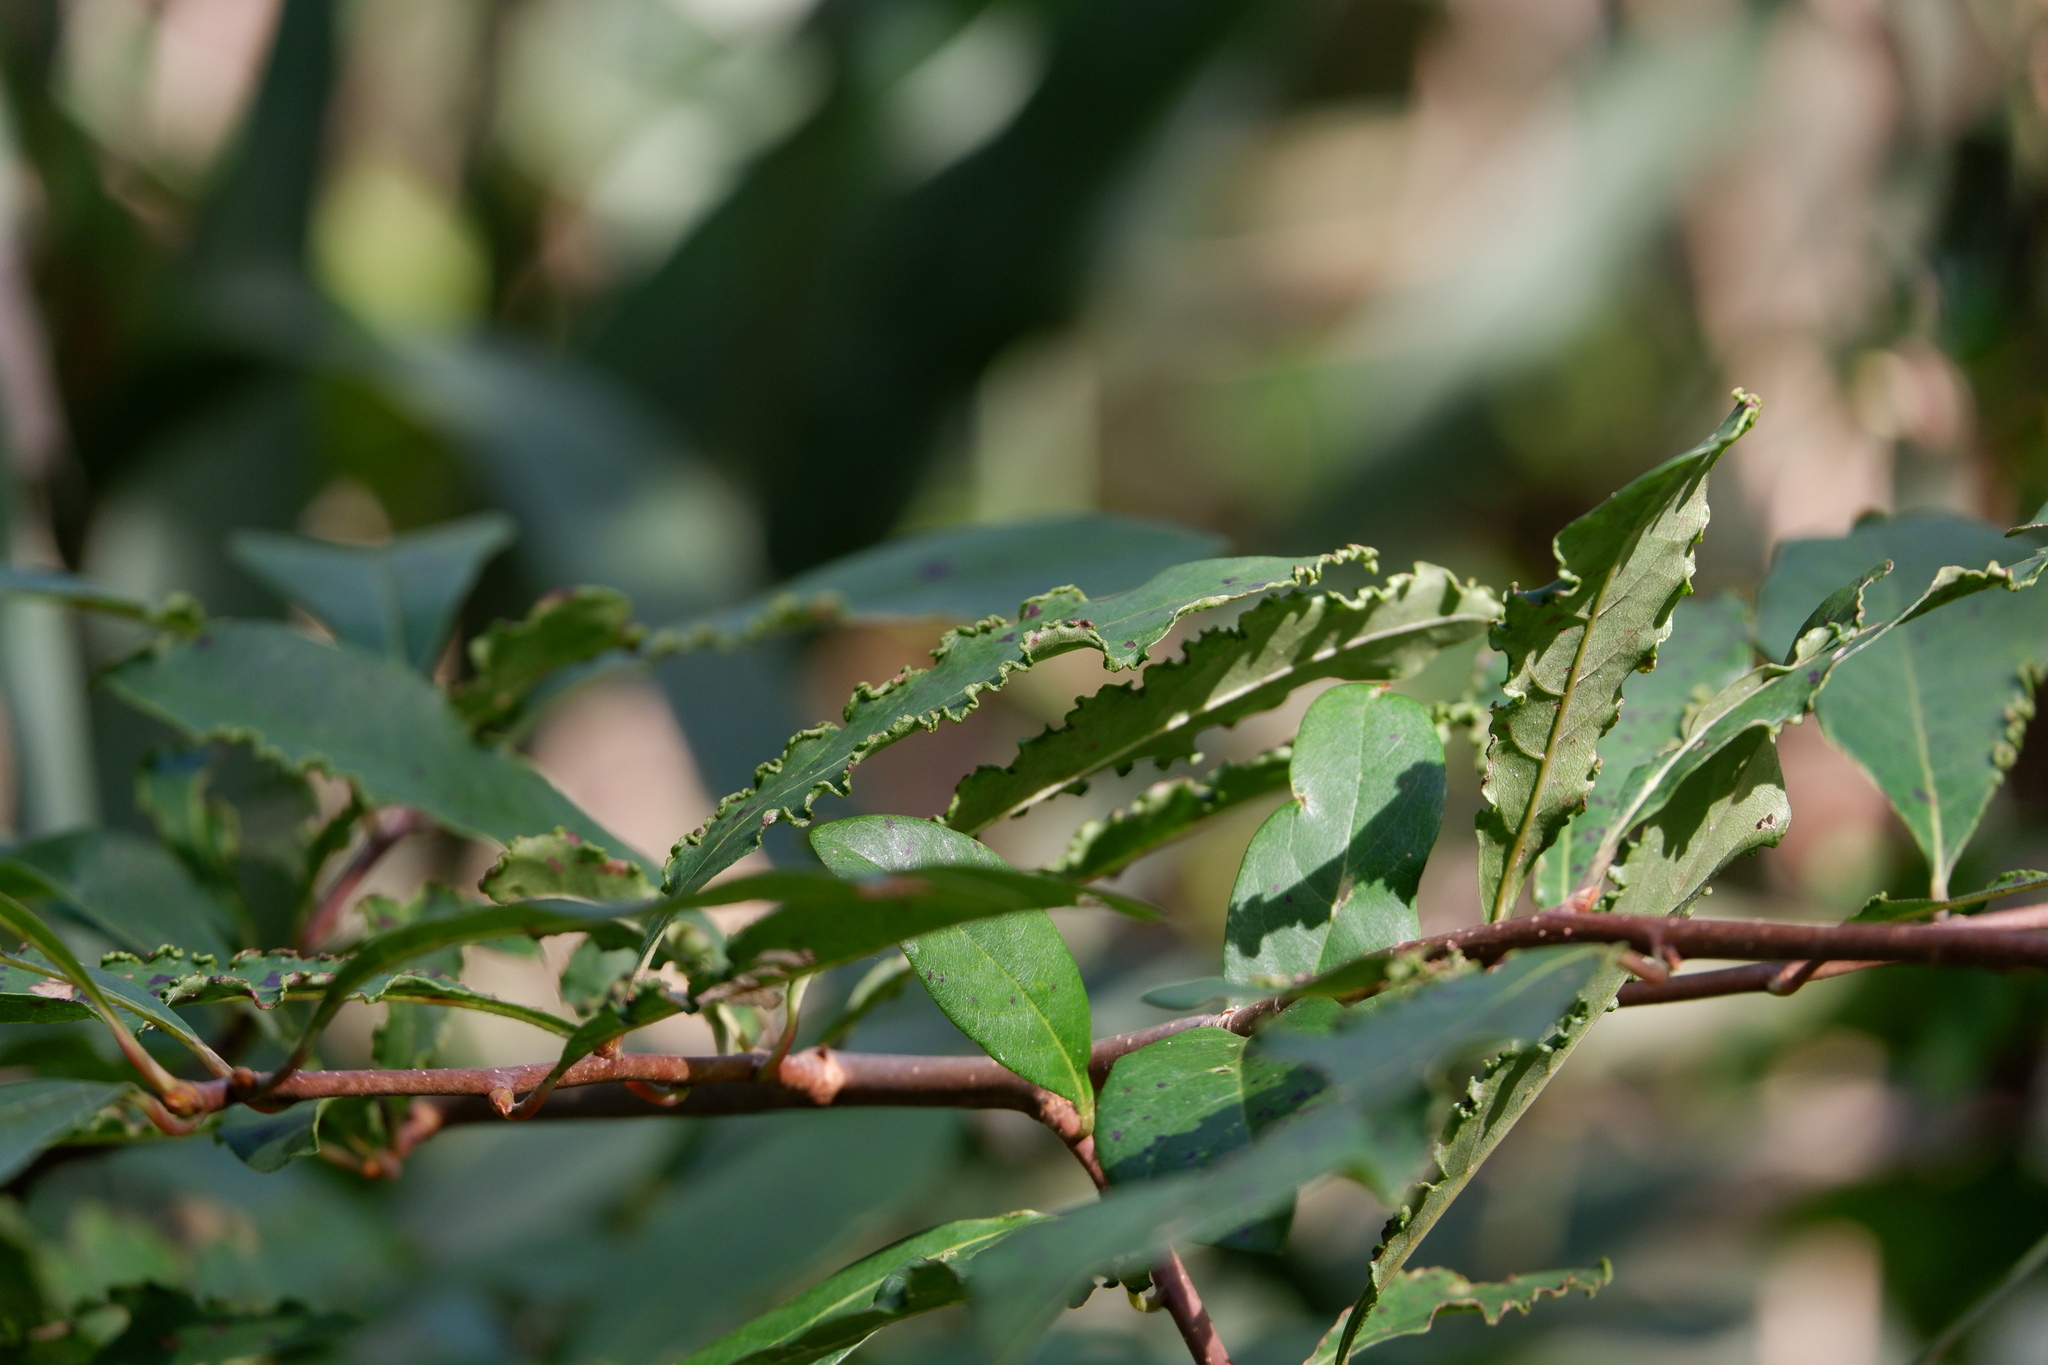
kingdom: Animalia
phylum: Arthropoda
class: Arachnida
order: Trombidiformes
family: Eriophyidae
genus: Aceria
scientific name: Aceria
